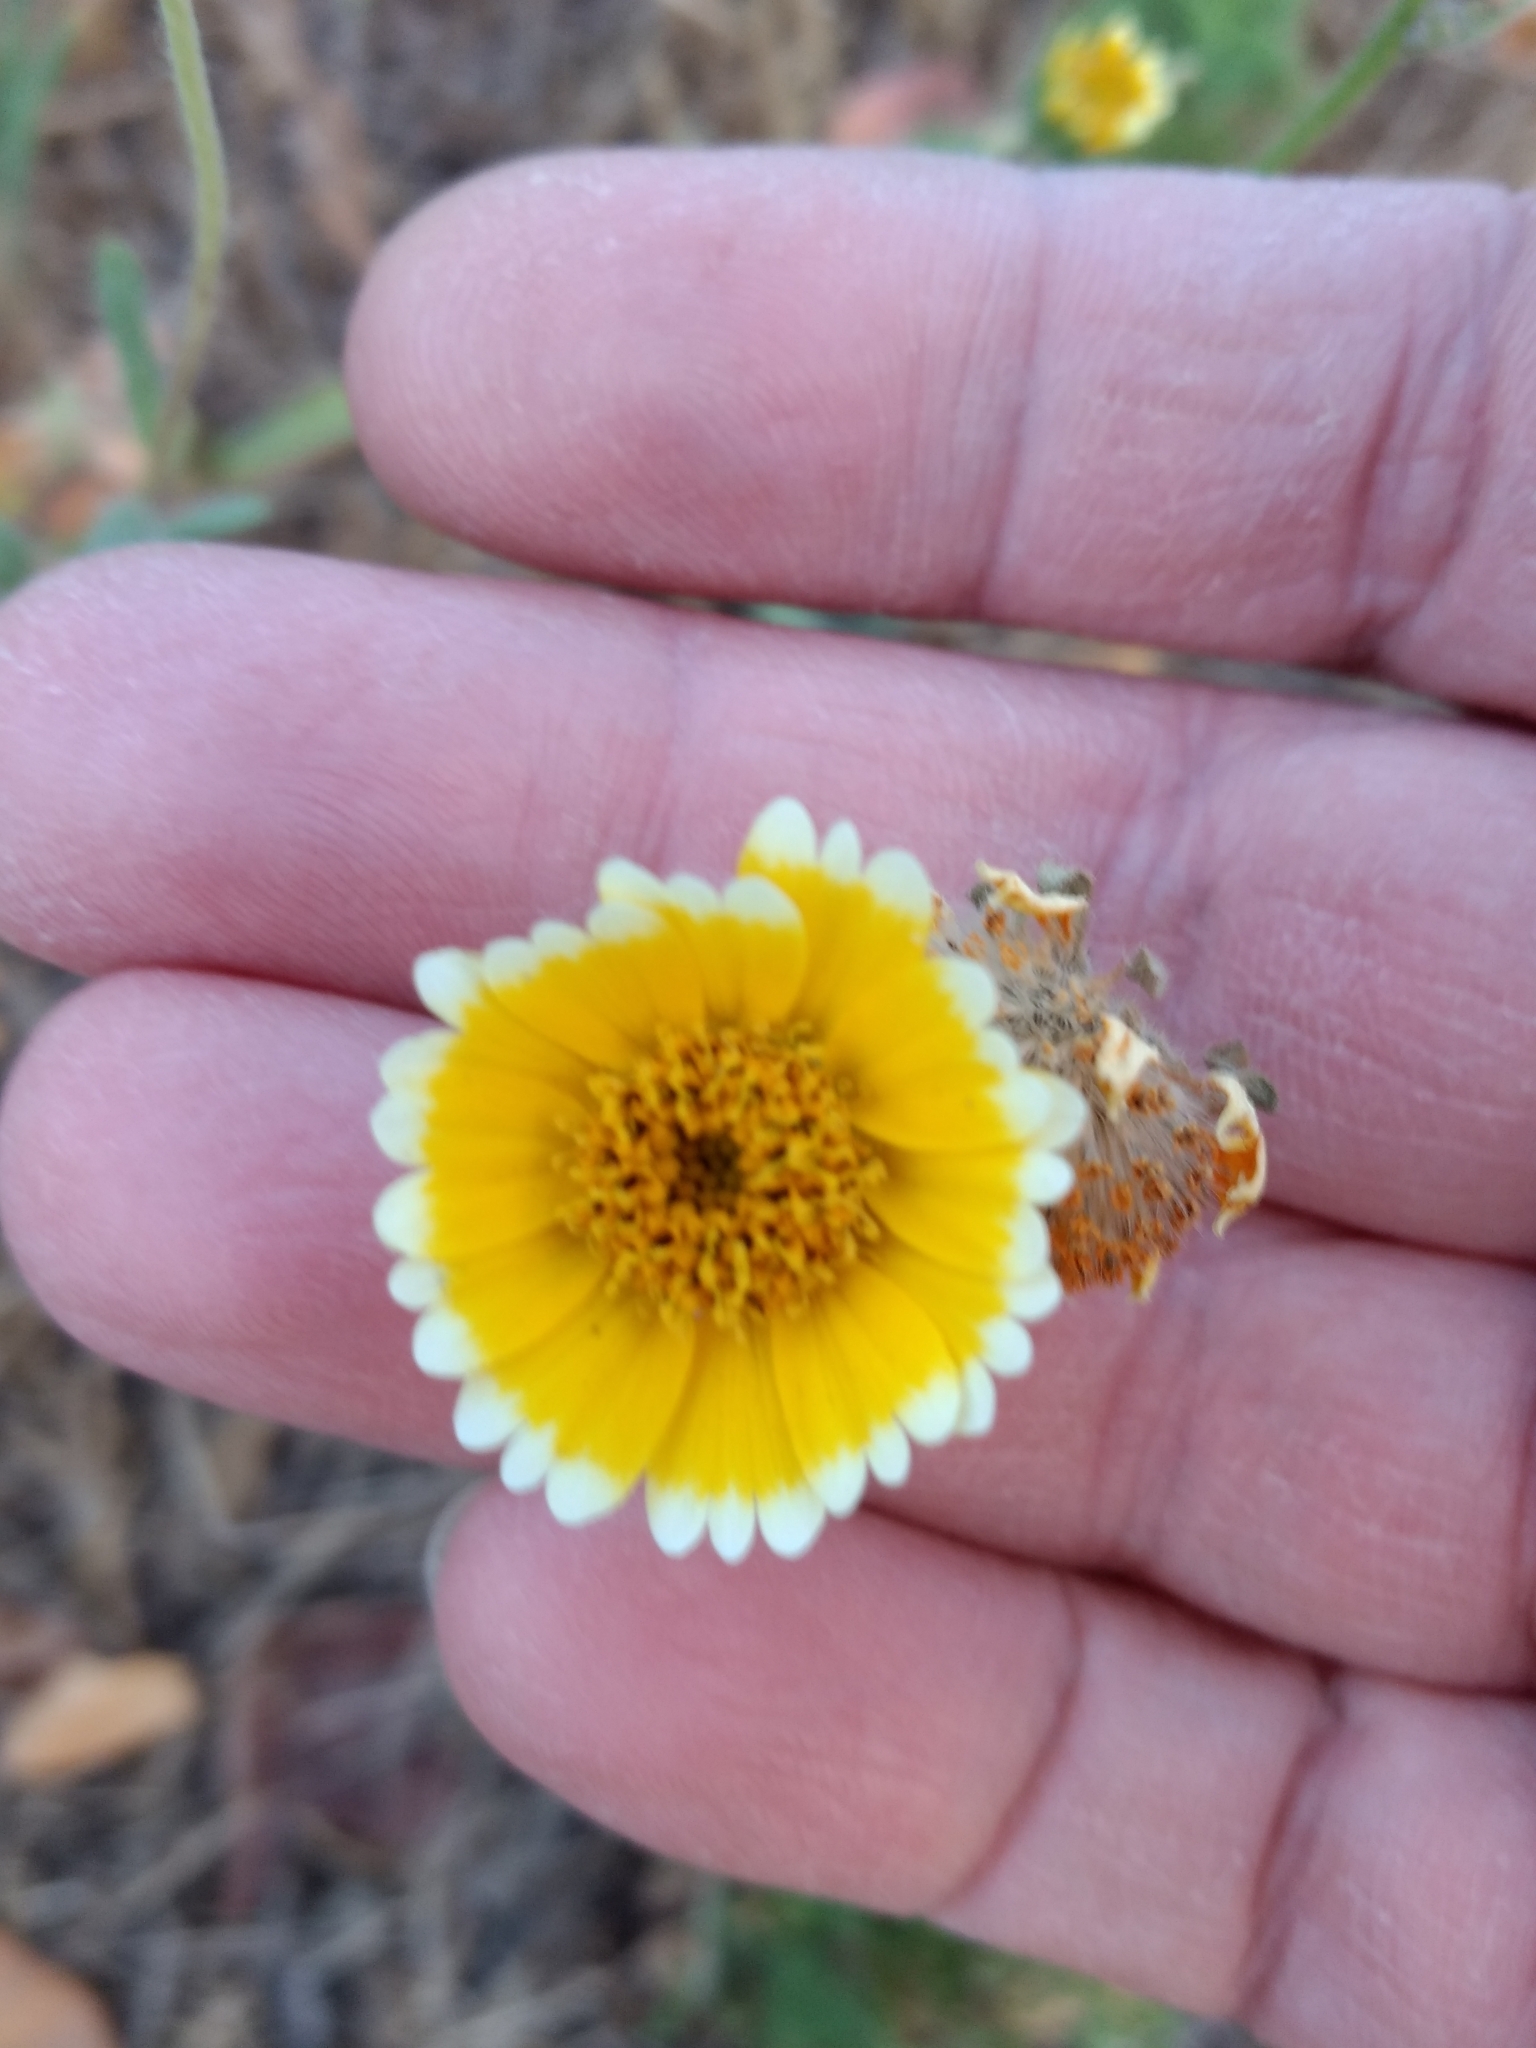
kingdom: Plantae
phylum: Tracheophyta
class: Magnoliopsida
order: Asterales
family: Asteraceae
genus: Layia
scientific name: Layia platyglossa
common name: Tidy-tips
